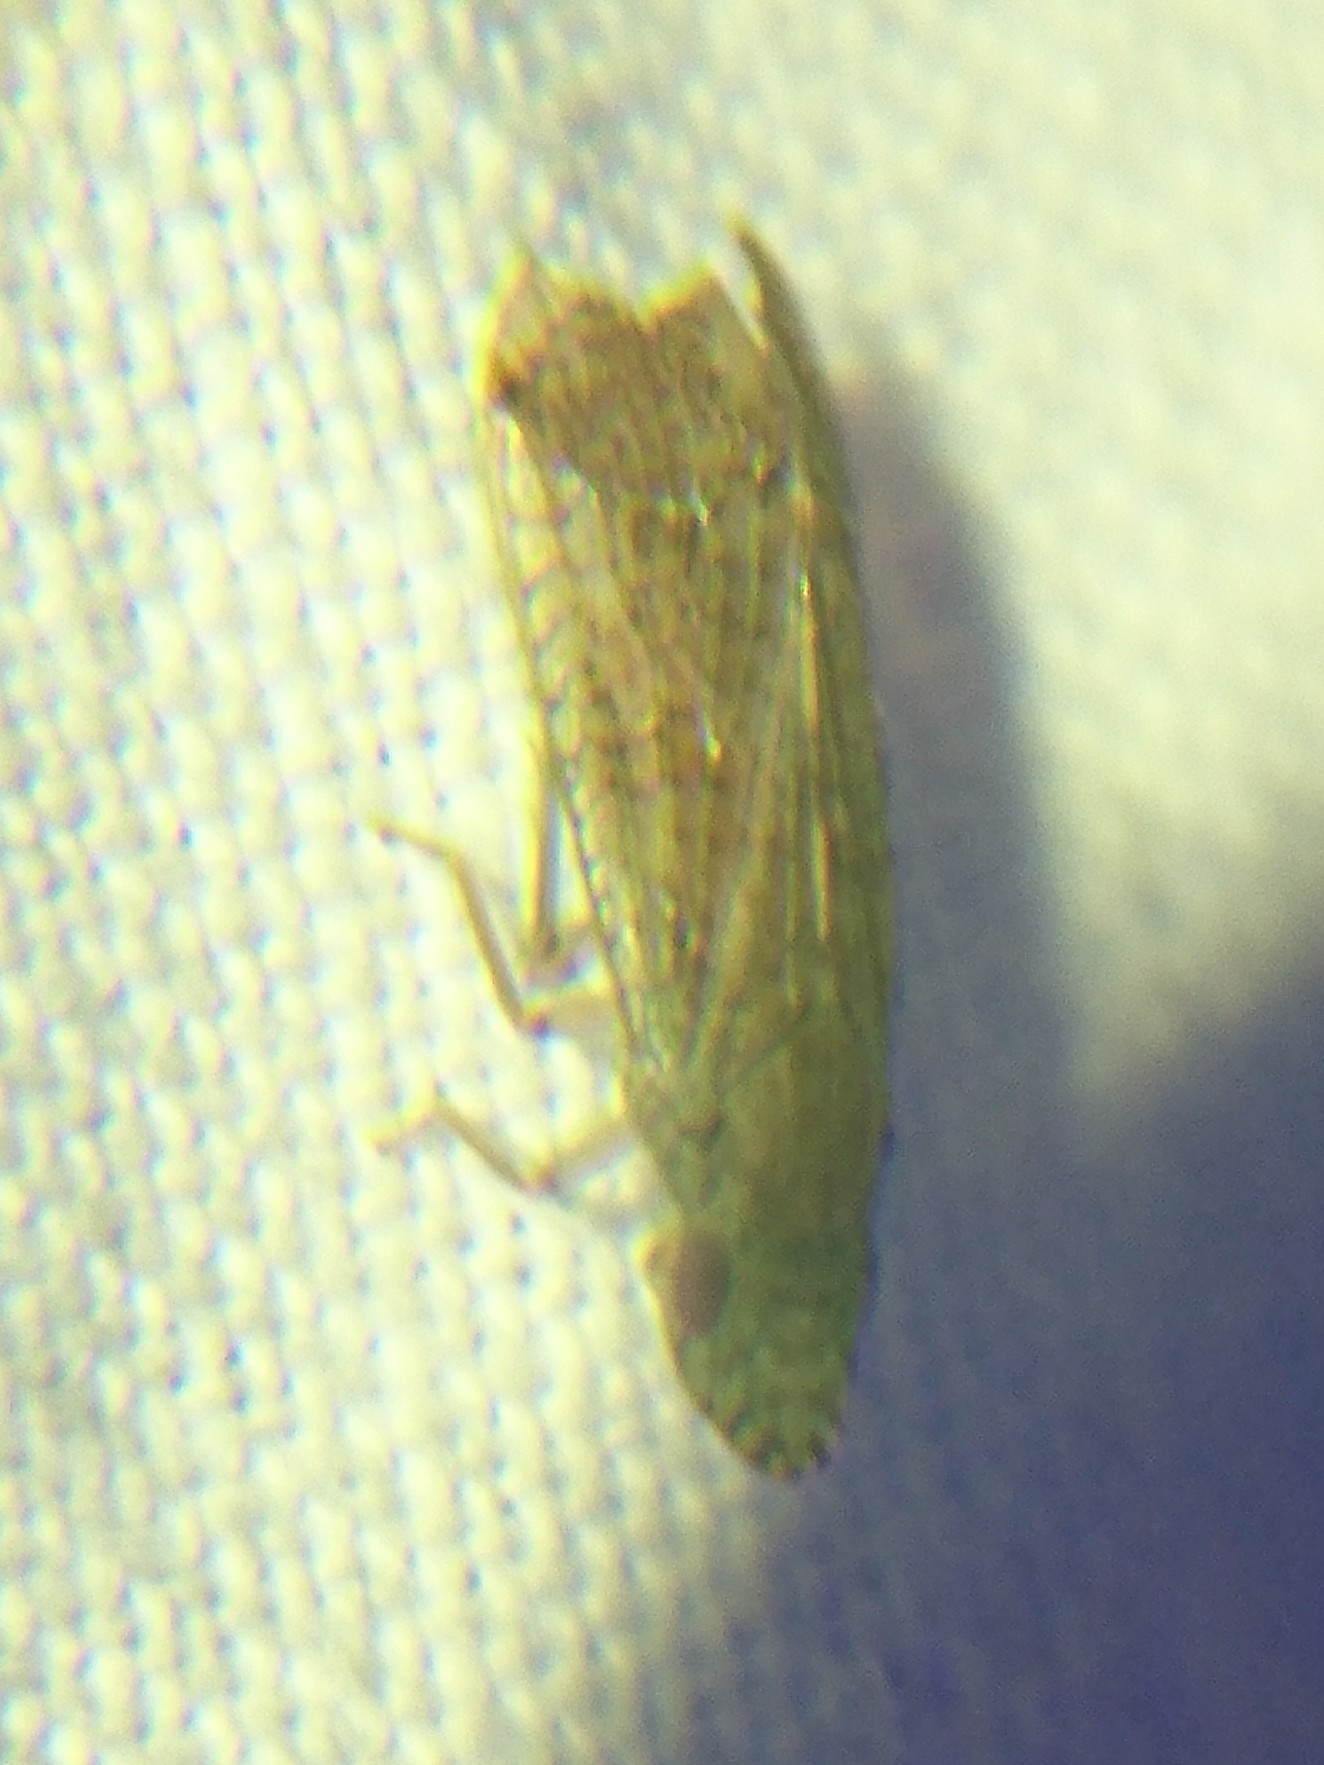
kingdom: Animalia
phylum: Arthropoda
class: Insecta
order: Hemiptera
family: Tropiduchidae
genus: Pelitropis
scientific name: Pelitropis rotulata
